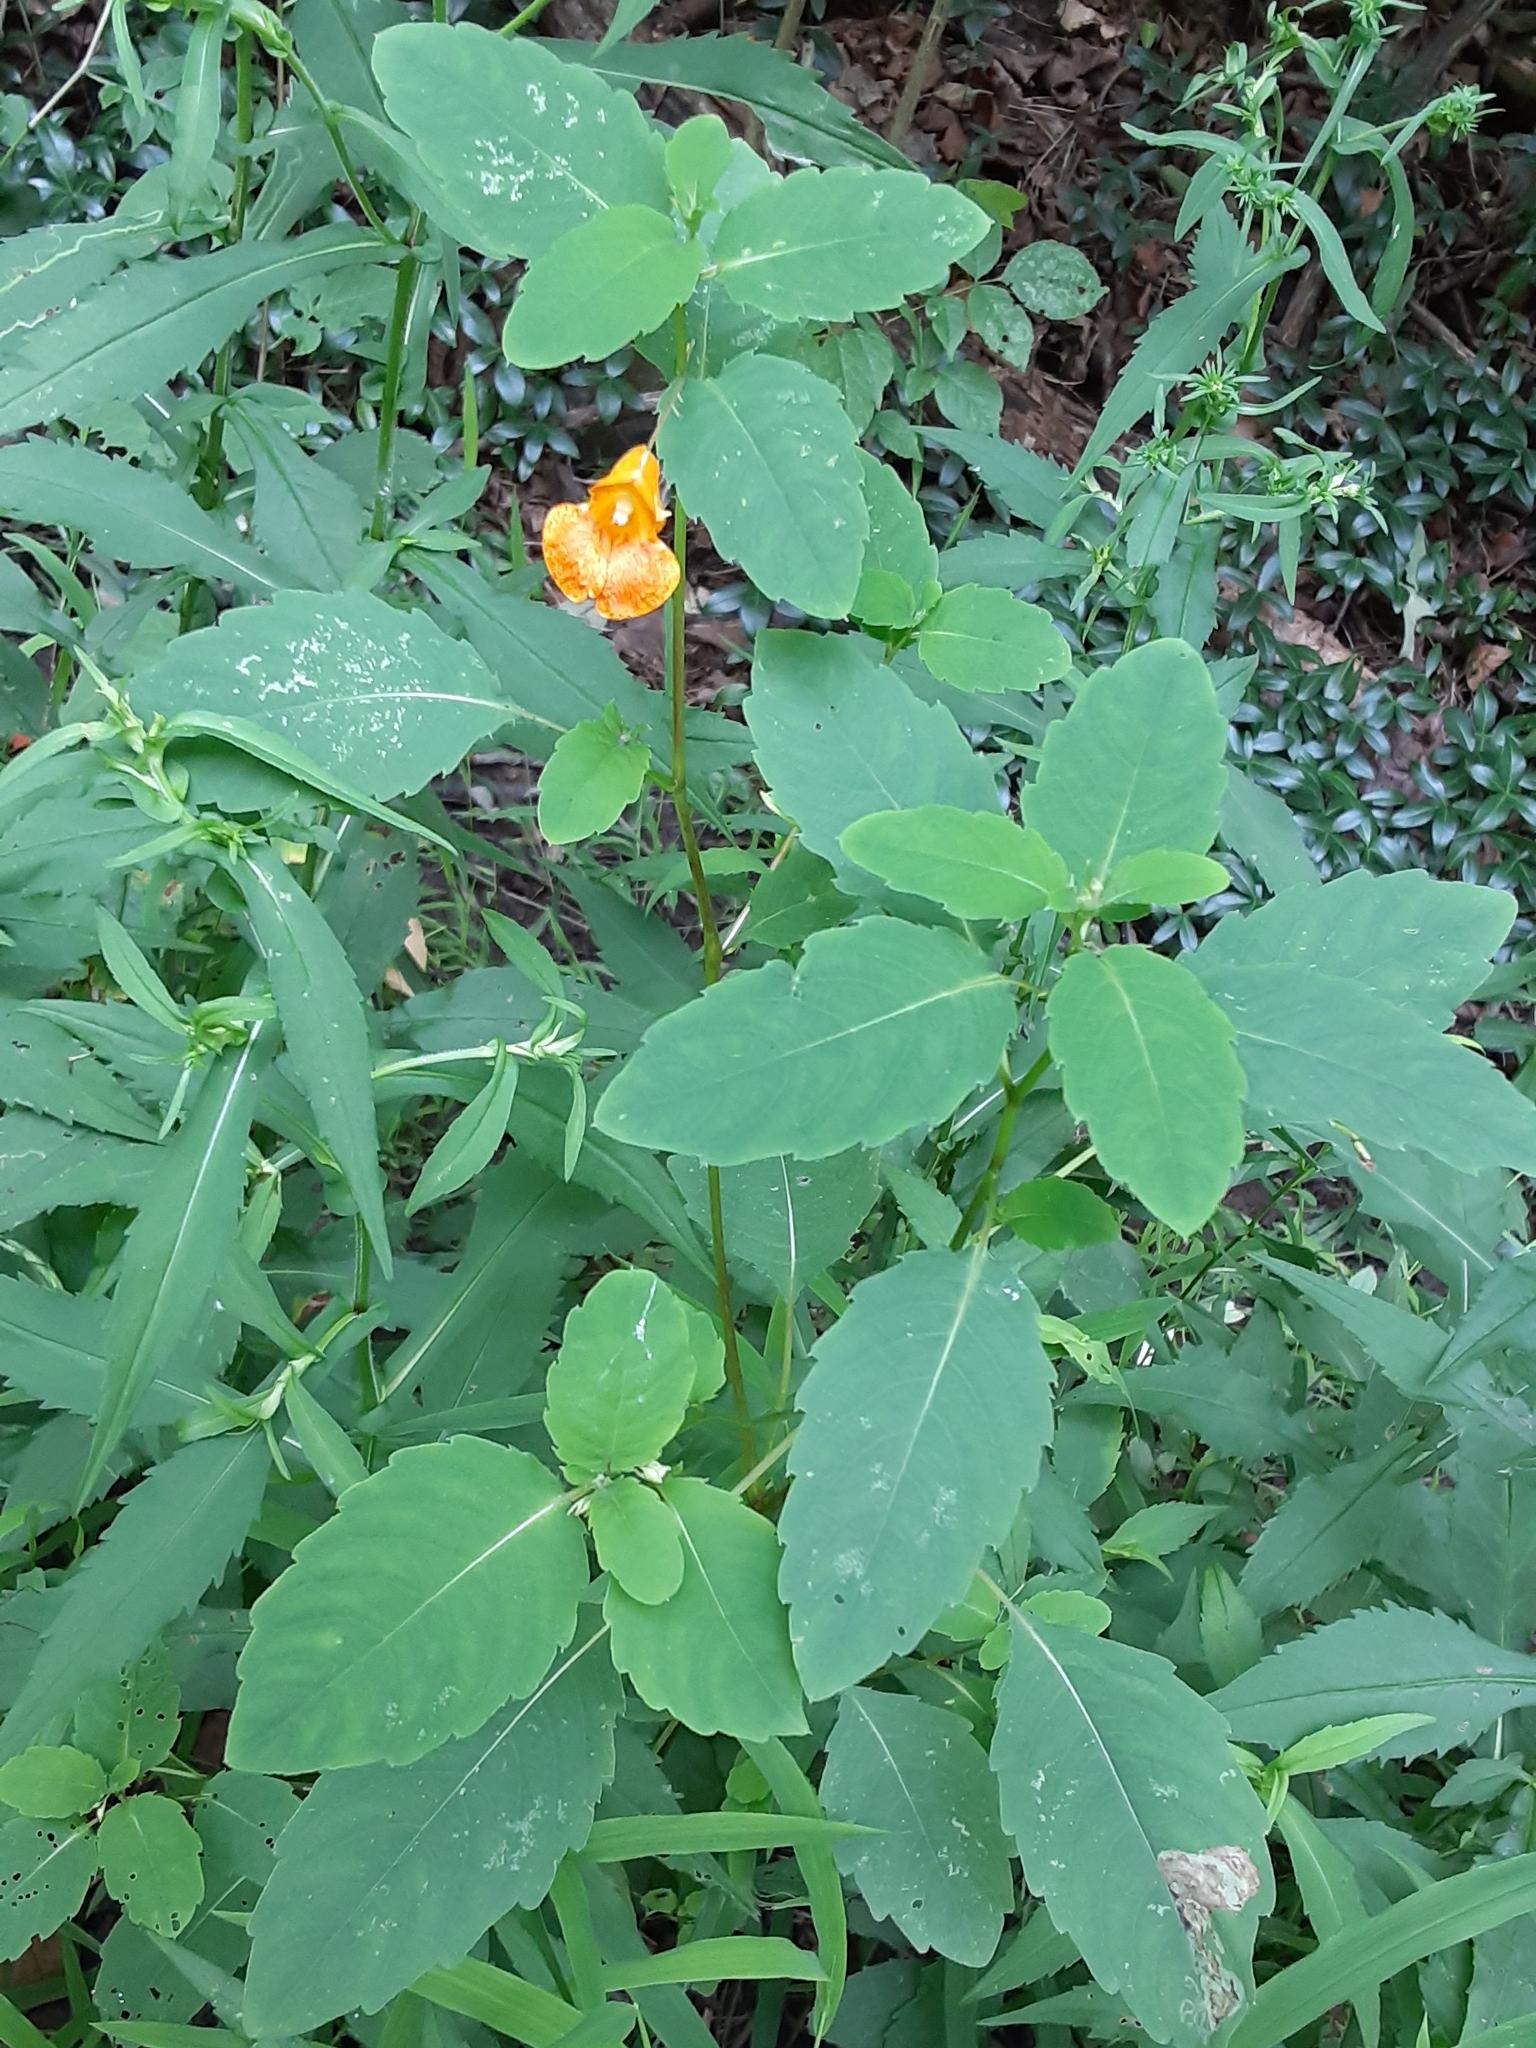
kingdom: Plantae
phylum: Tracheophyta
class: Magnoliopsida
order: Ericales
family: Balsaminaceae
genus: Impatiens
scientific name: Impatiens capensis
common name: Orange balsam
